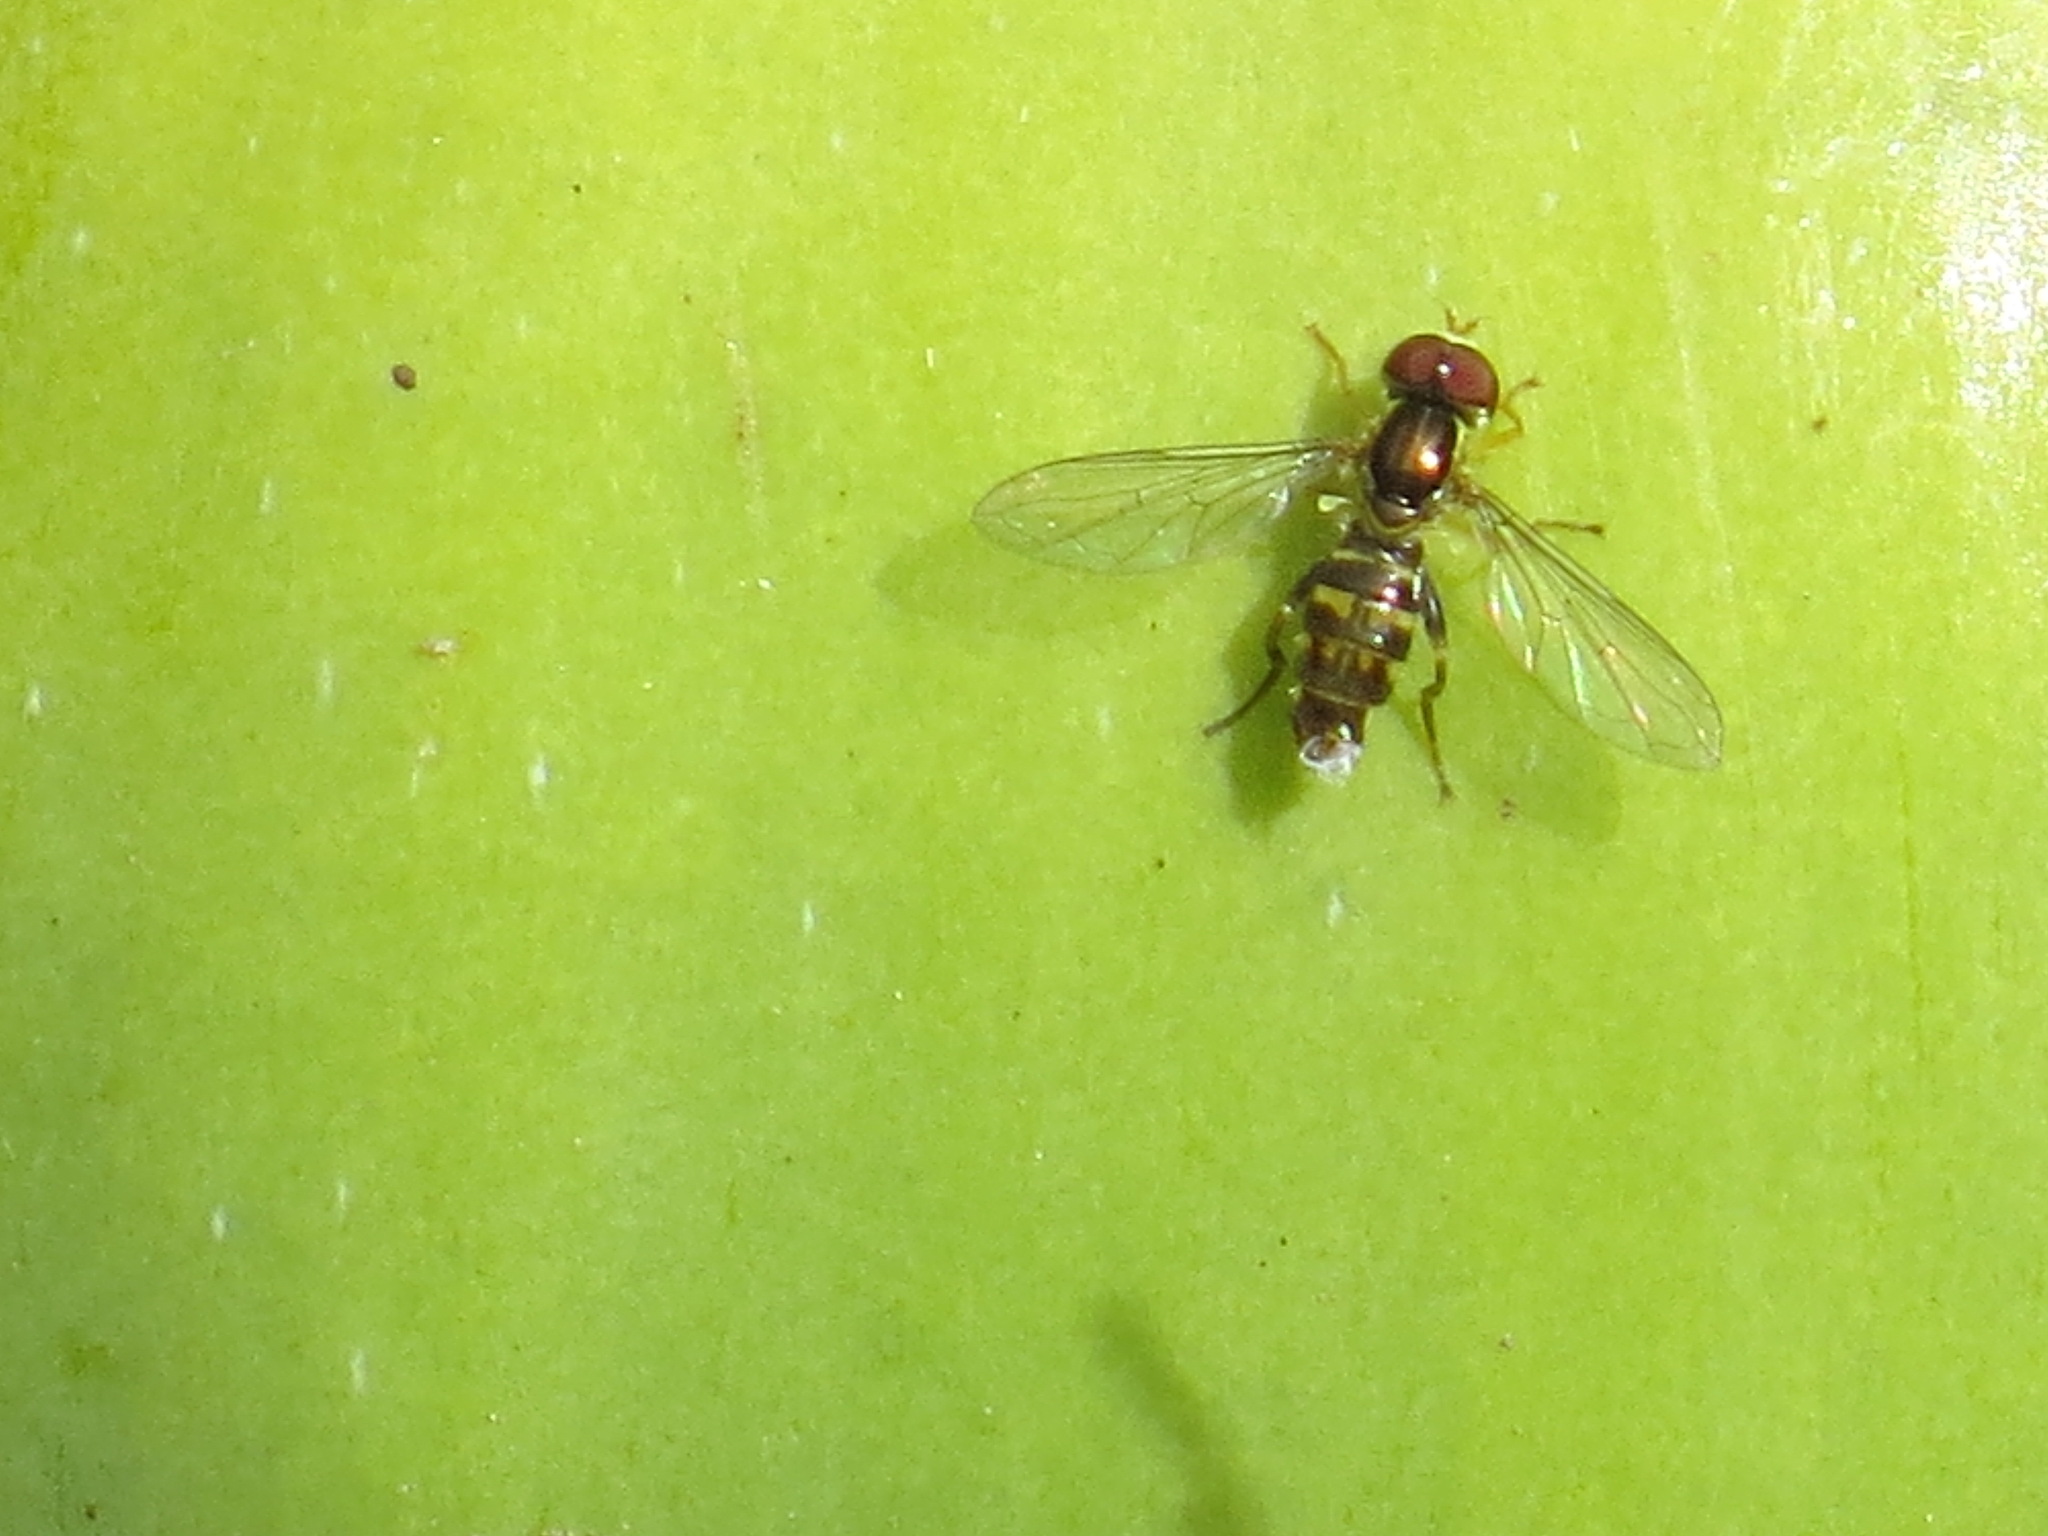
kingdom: Animalia
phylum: Arthropoda
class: Insecta
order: Diptera
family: Syrphidae
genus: Toxomerus
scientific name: Toxomerus occidentalis
